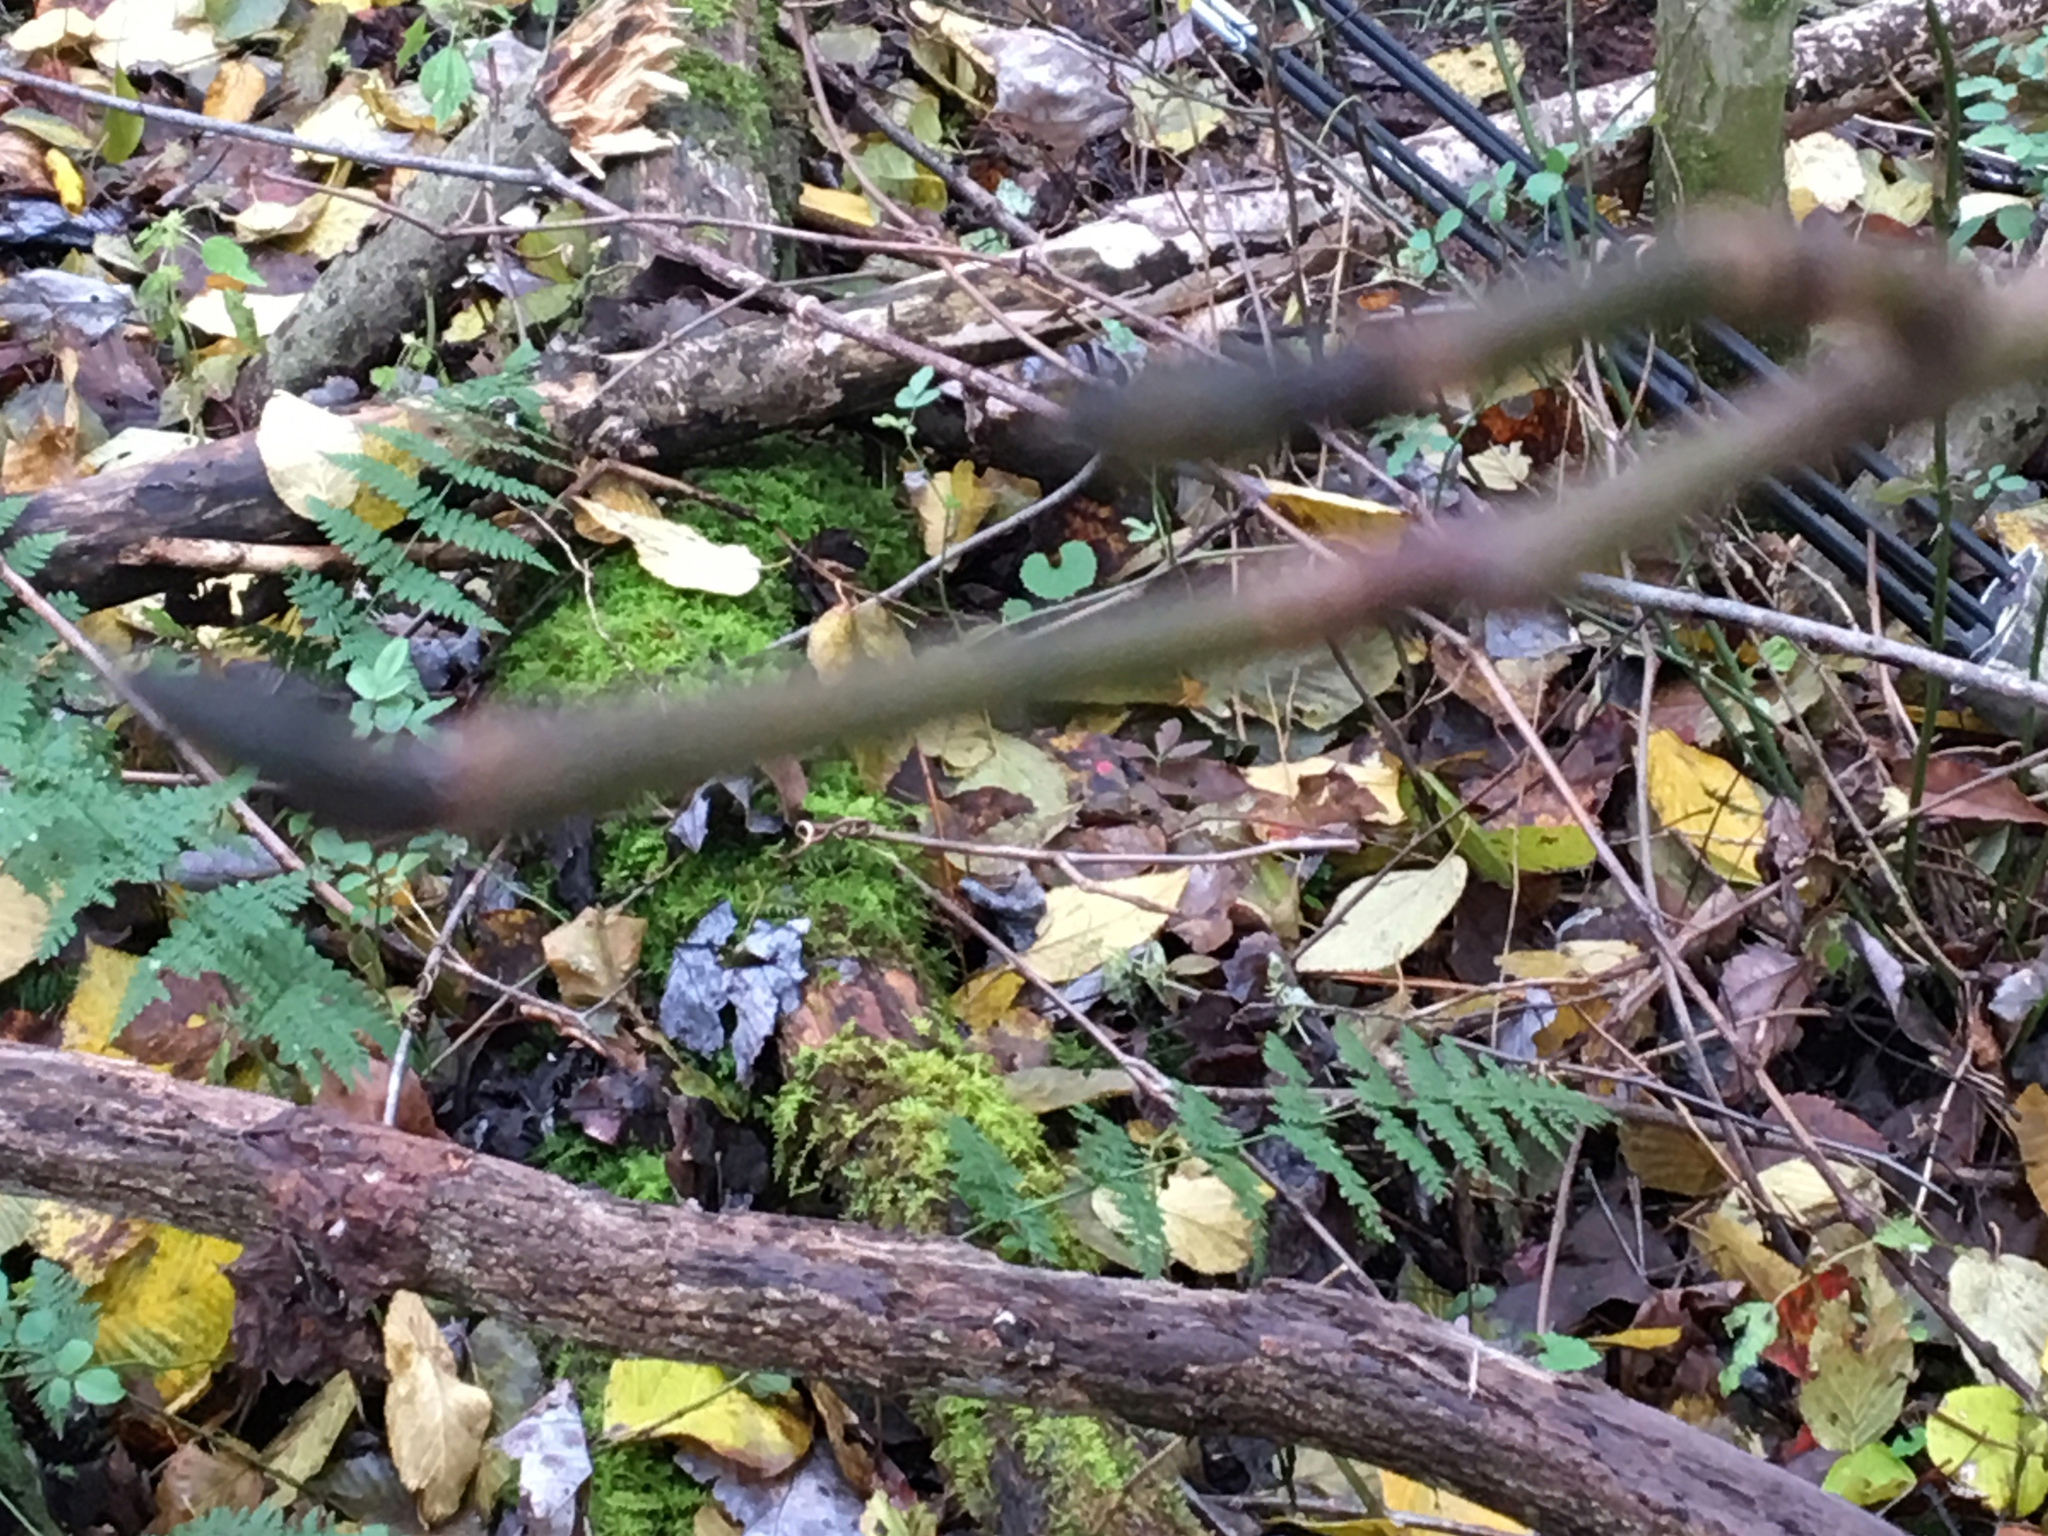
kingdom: Plantae
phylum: Tracheophyta
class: Magnoliopsida
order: Sapindales
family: Sapindaceae
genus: Acer
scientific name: Acer pensylvanicum
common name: Moosewood
